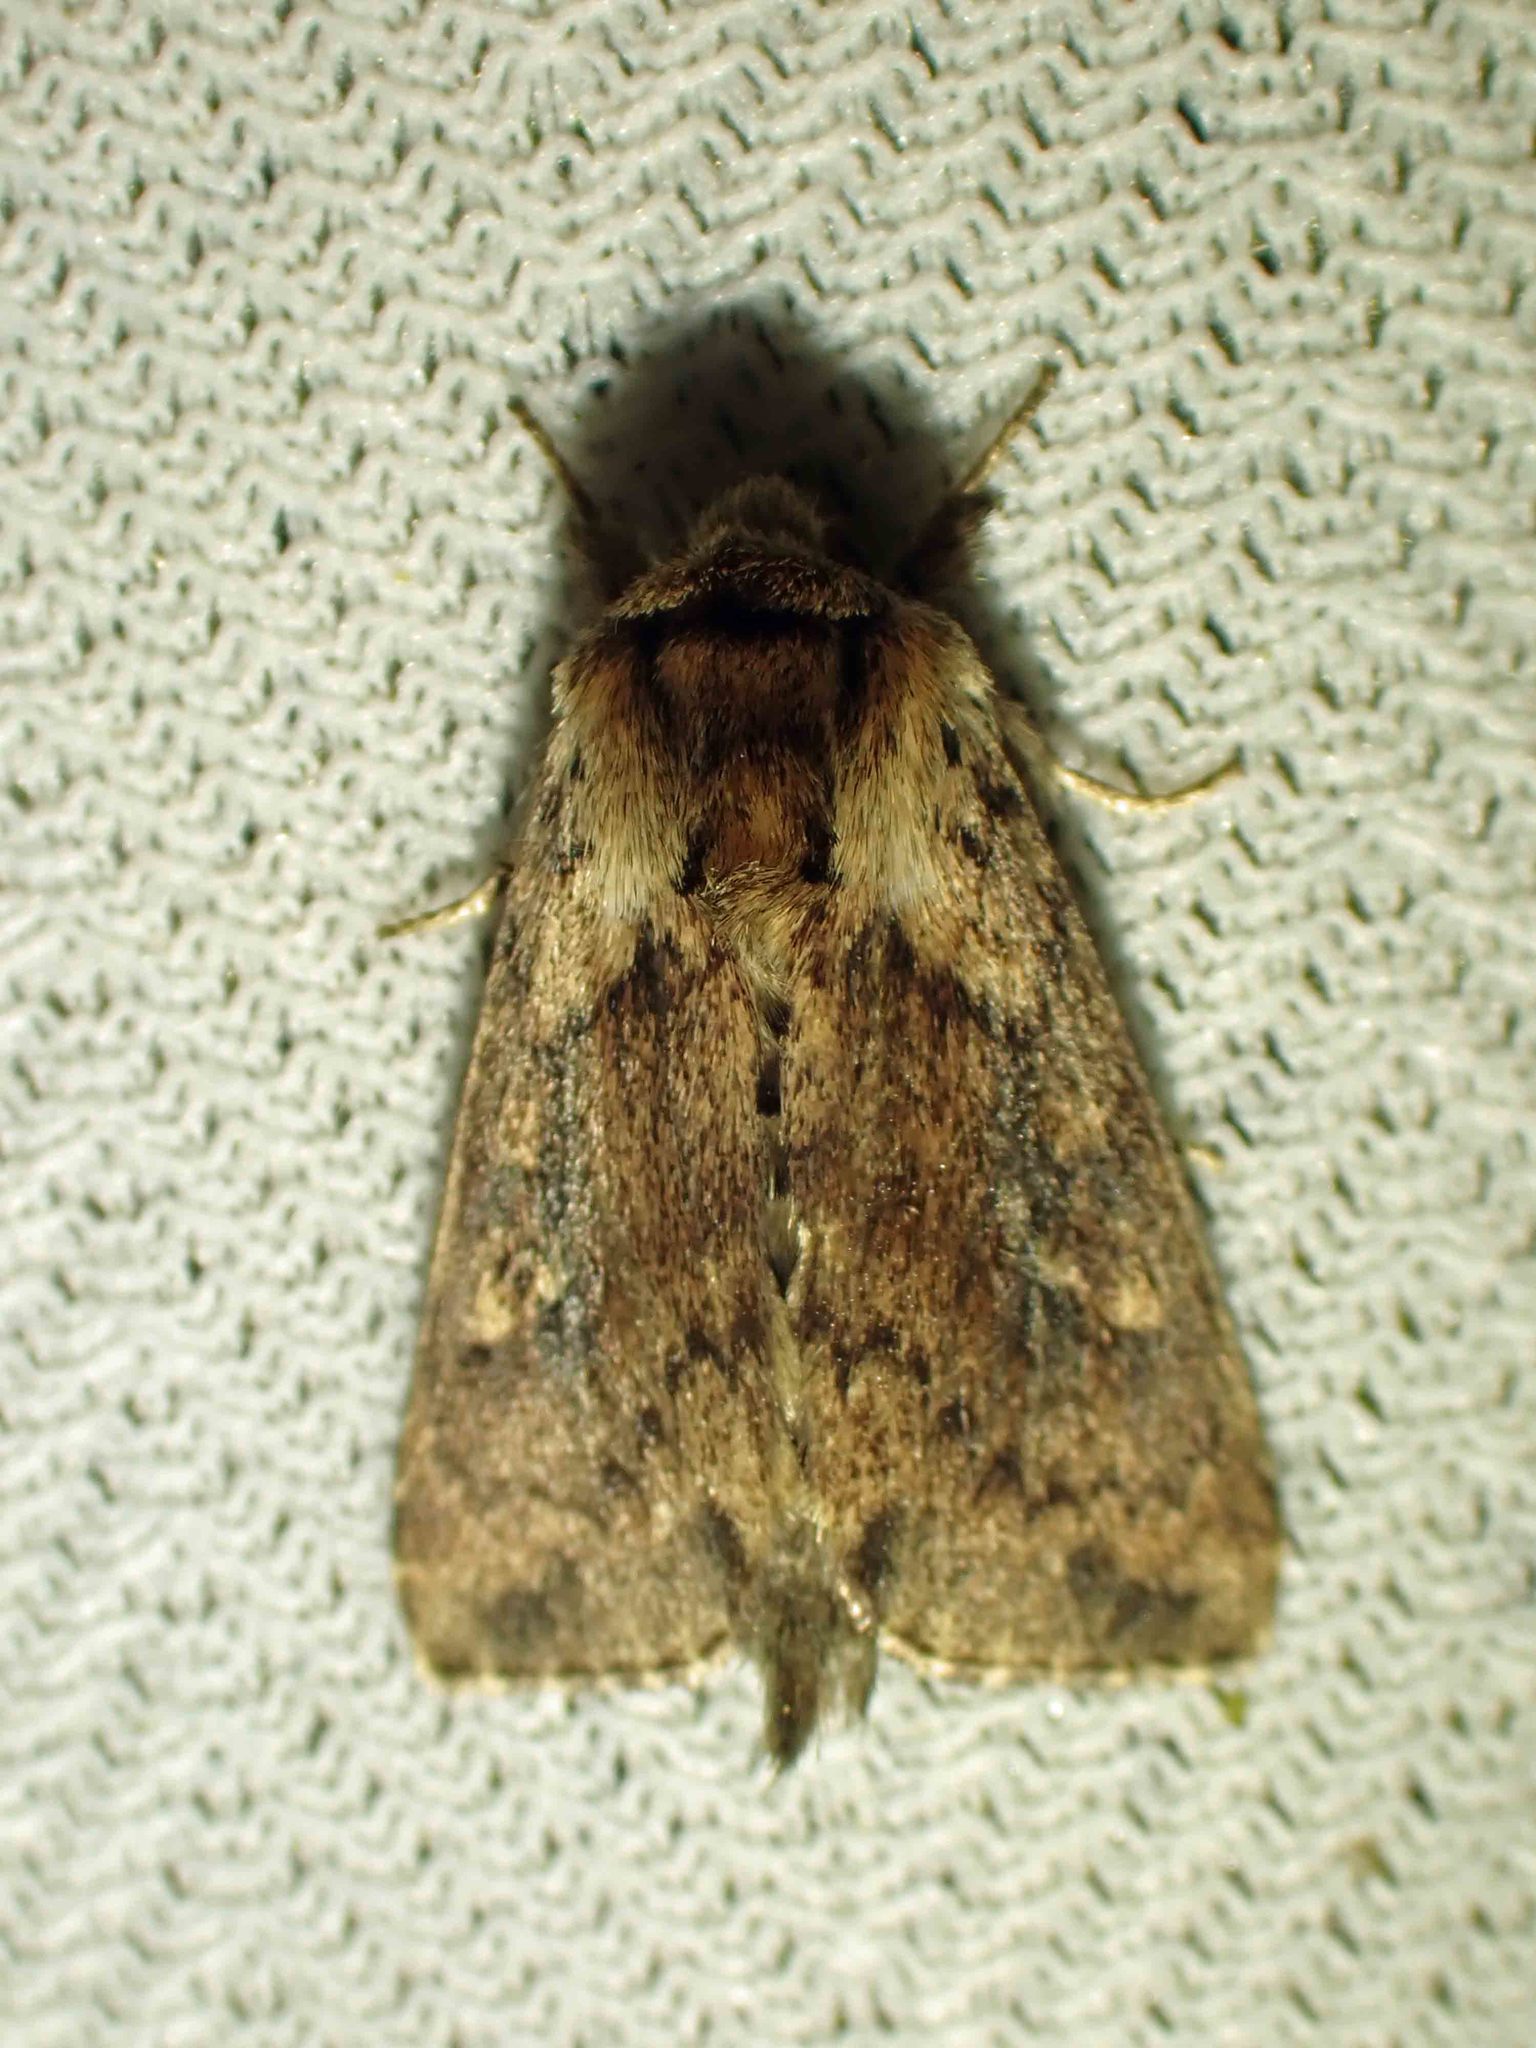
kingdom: Animalia
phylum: Arthropoda
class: Insecta
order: Lepidoptera
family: Noctuidae
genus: Bellura
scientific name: Bellura vulnifica
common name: Black-tailed diver moth
